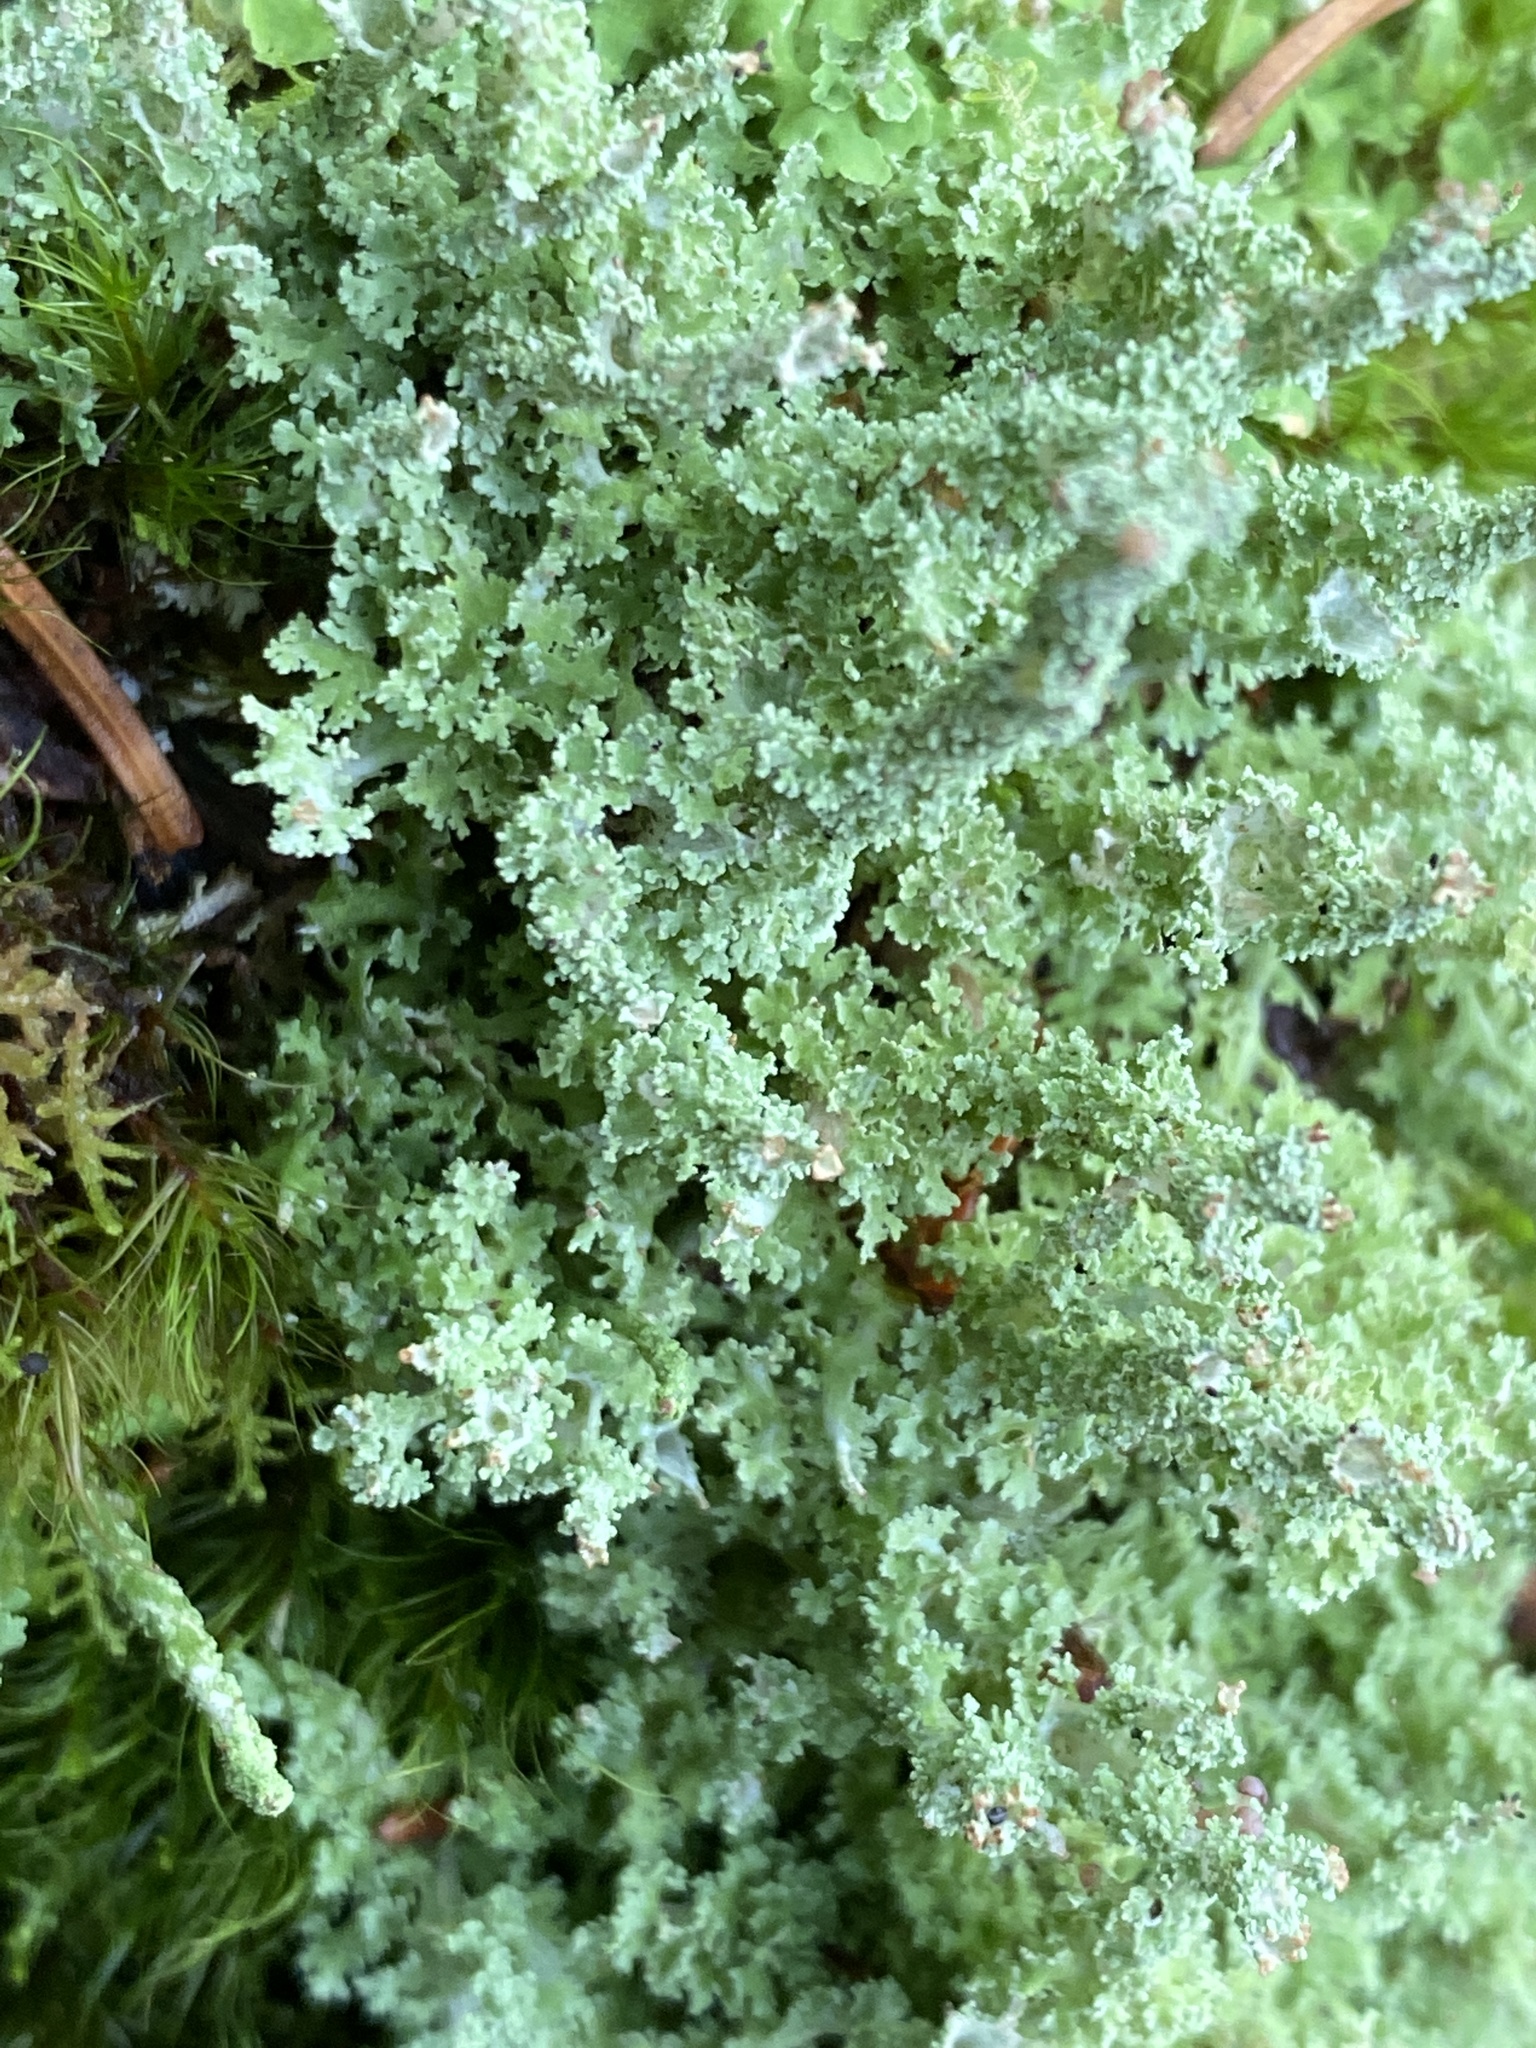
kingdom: Fungi
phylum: Ascomycota
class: Lecanoromycetes
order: Lecanorales
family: Cladoniaceae
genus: Cladonia
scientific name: Cladonia squamosa
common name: Dragon horn
